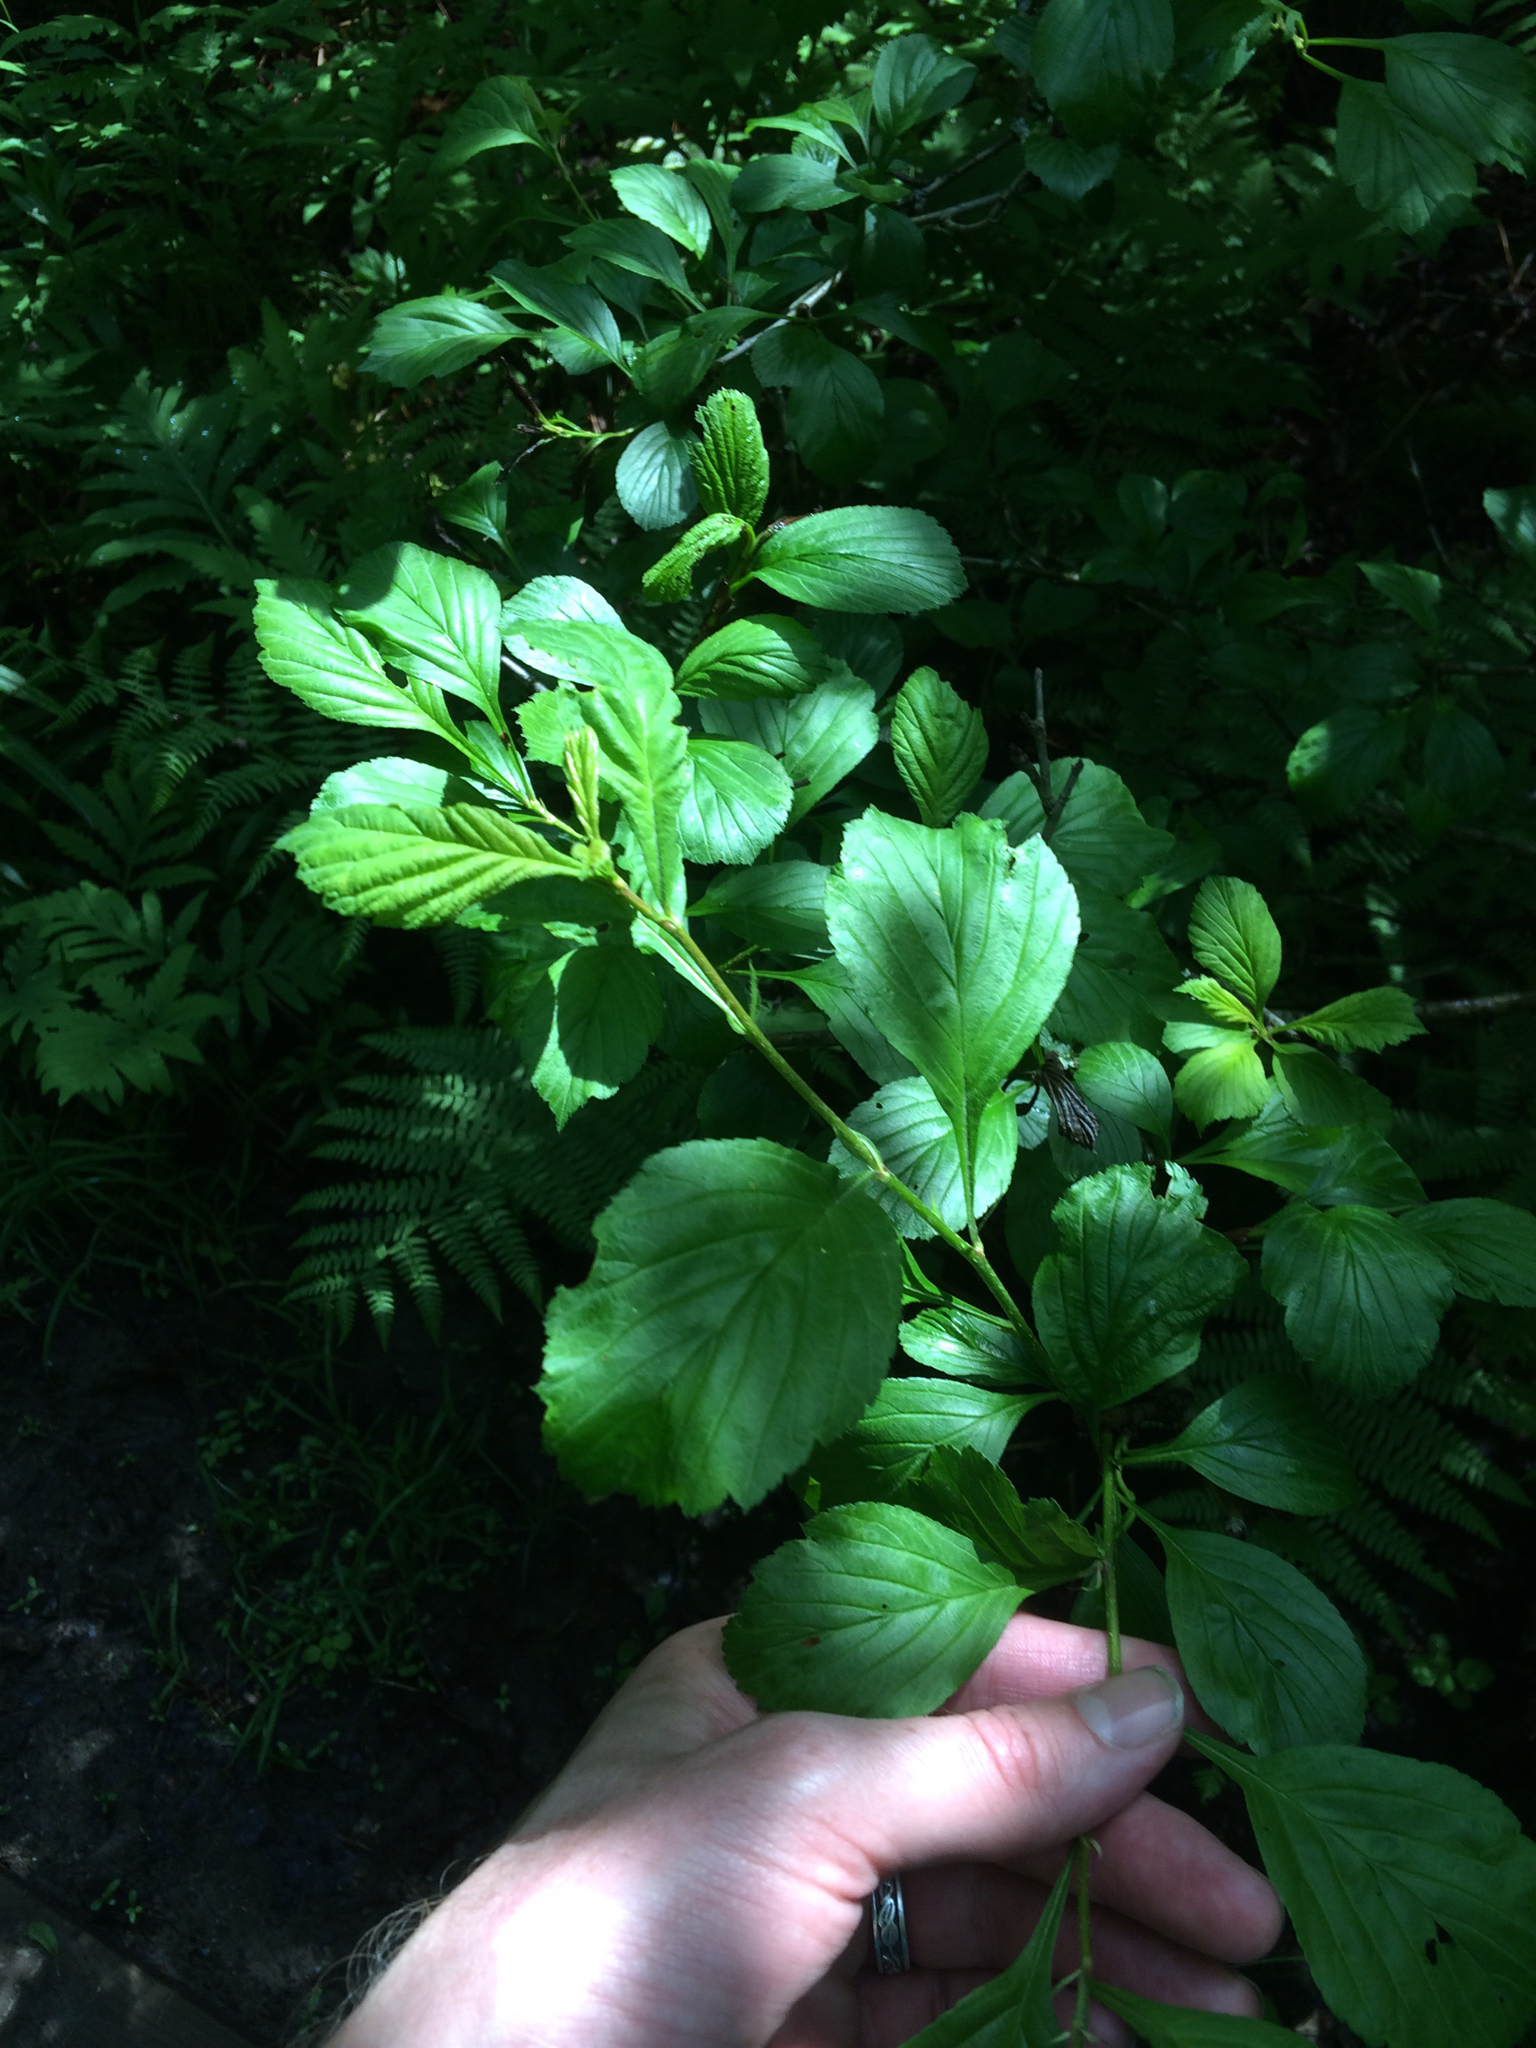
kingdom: Plantae
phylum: Tracheophyta
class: Magnoliopsida
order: Rosales
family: Rosaceae
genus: Crataegus
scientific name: Crataegus
